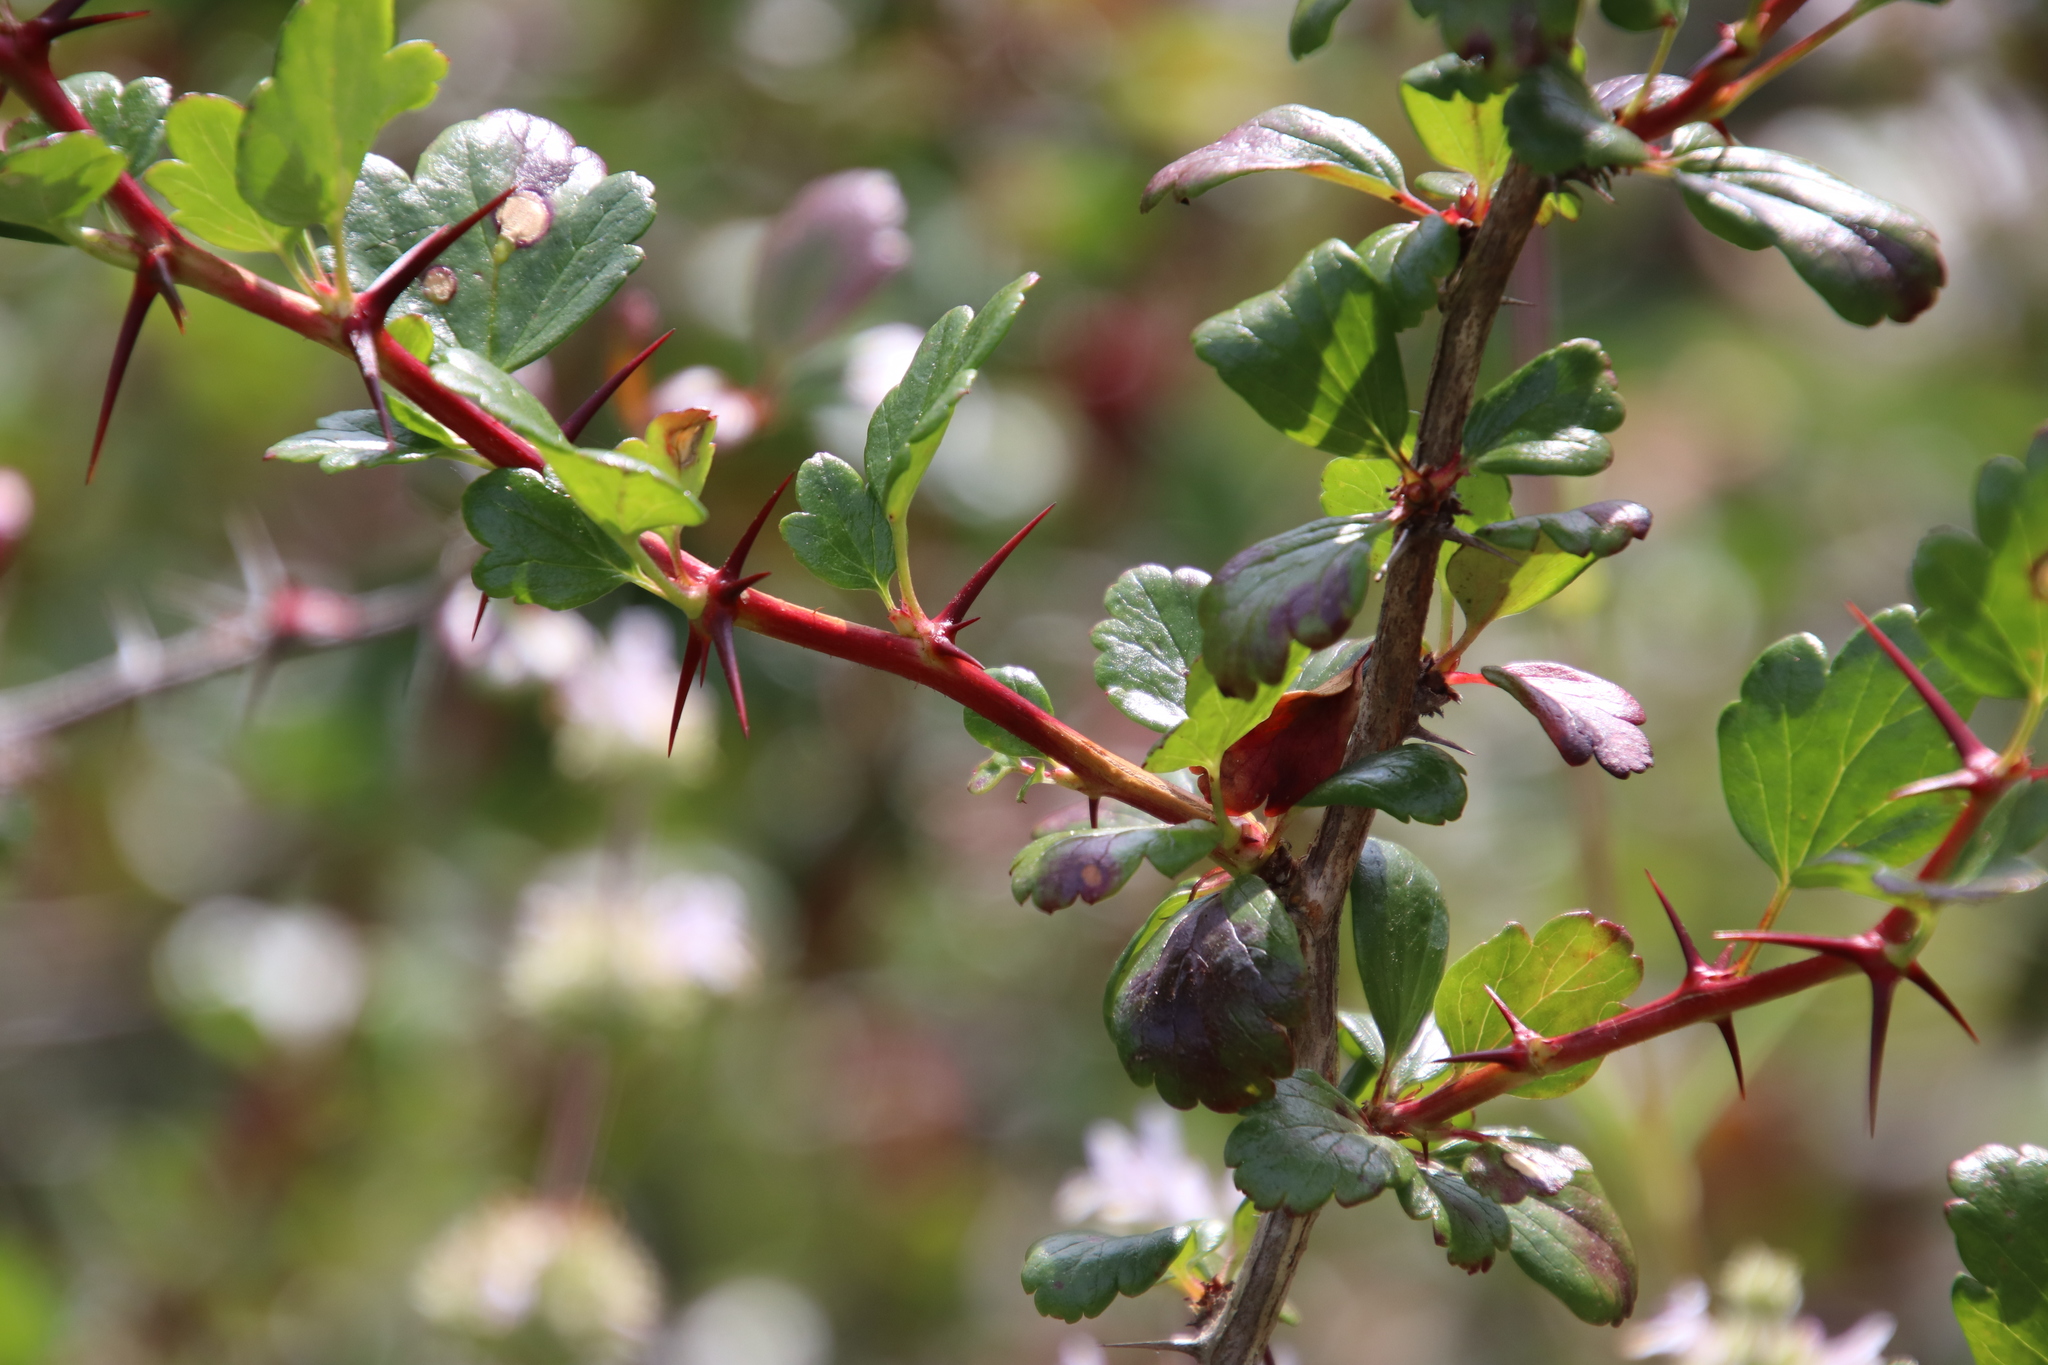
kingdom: Plantae
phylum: Tracheophyta
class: Magnoliopsida
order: Saxifragales
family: Grossulariaceae
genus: Ribes
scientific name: Ribes speciosum
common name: Fuchsia-flower gooseberry
